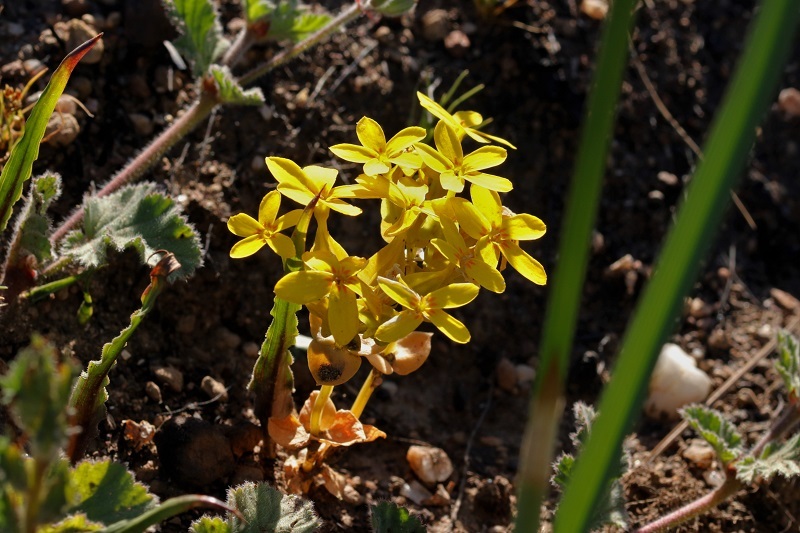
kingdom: Plantae
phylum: Tracheophyta
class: Magnoliopsida
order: Gentianales
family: Gentianaceae
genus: Sebaea
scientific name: Sebaea exacoides
